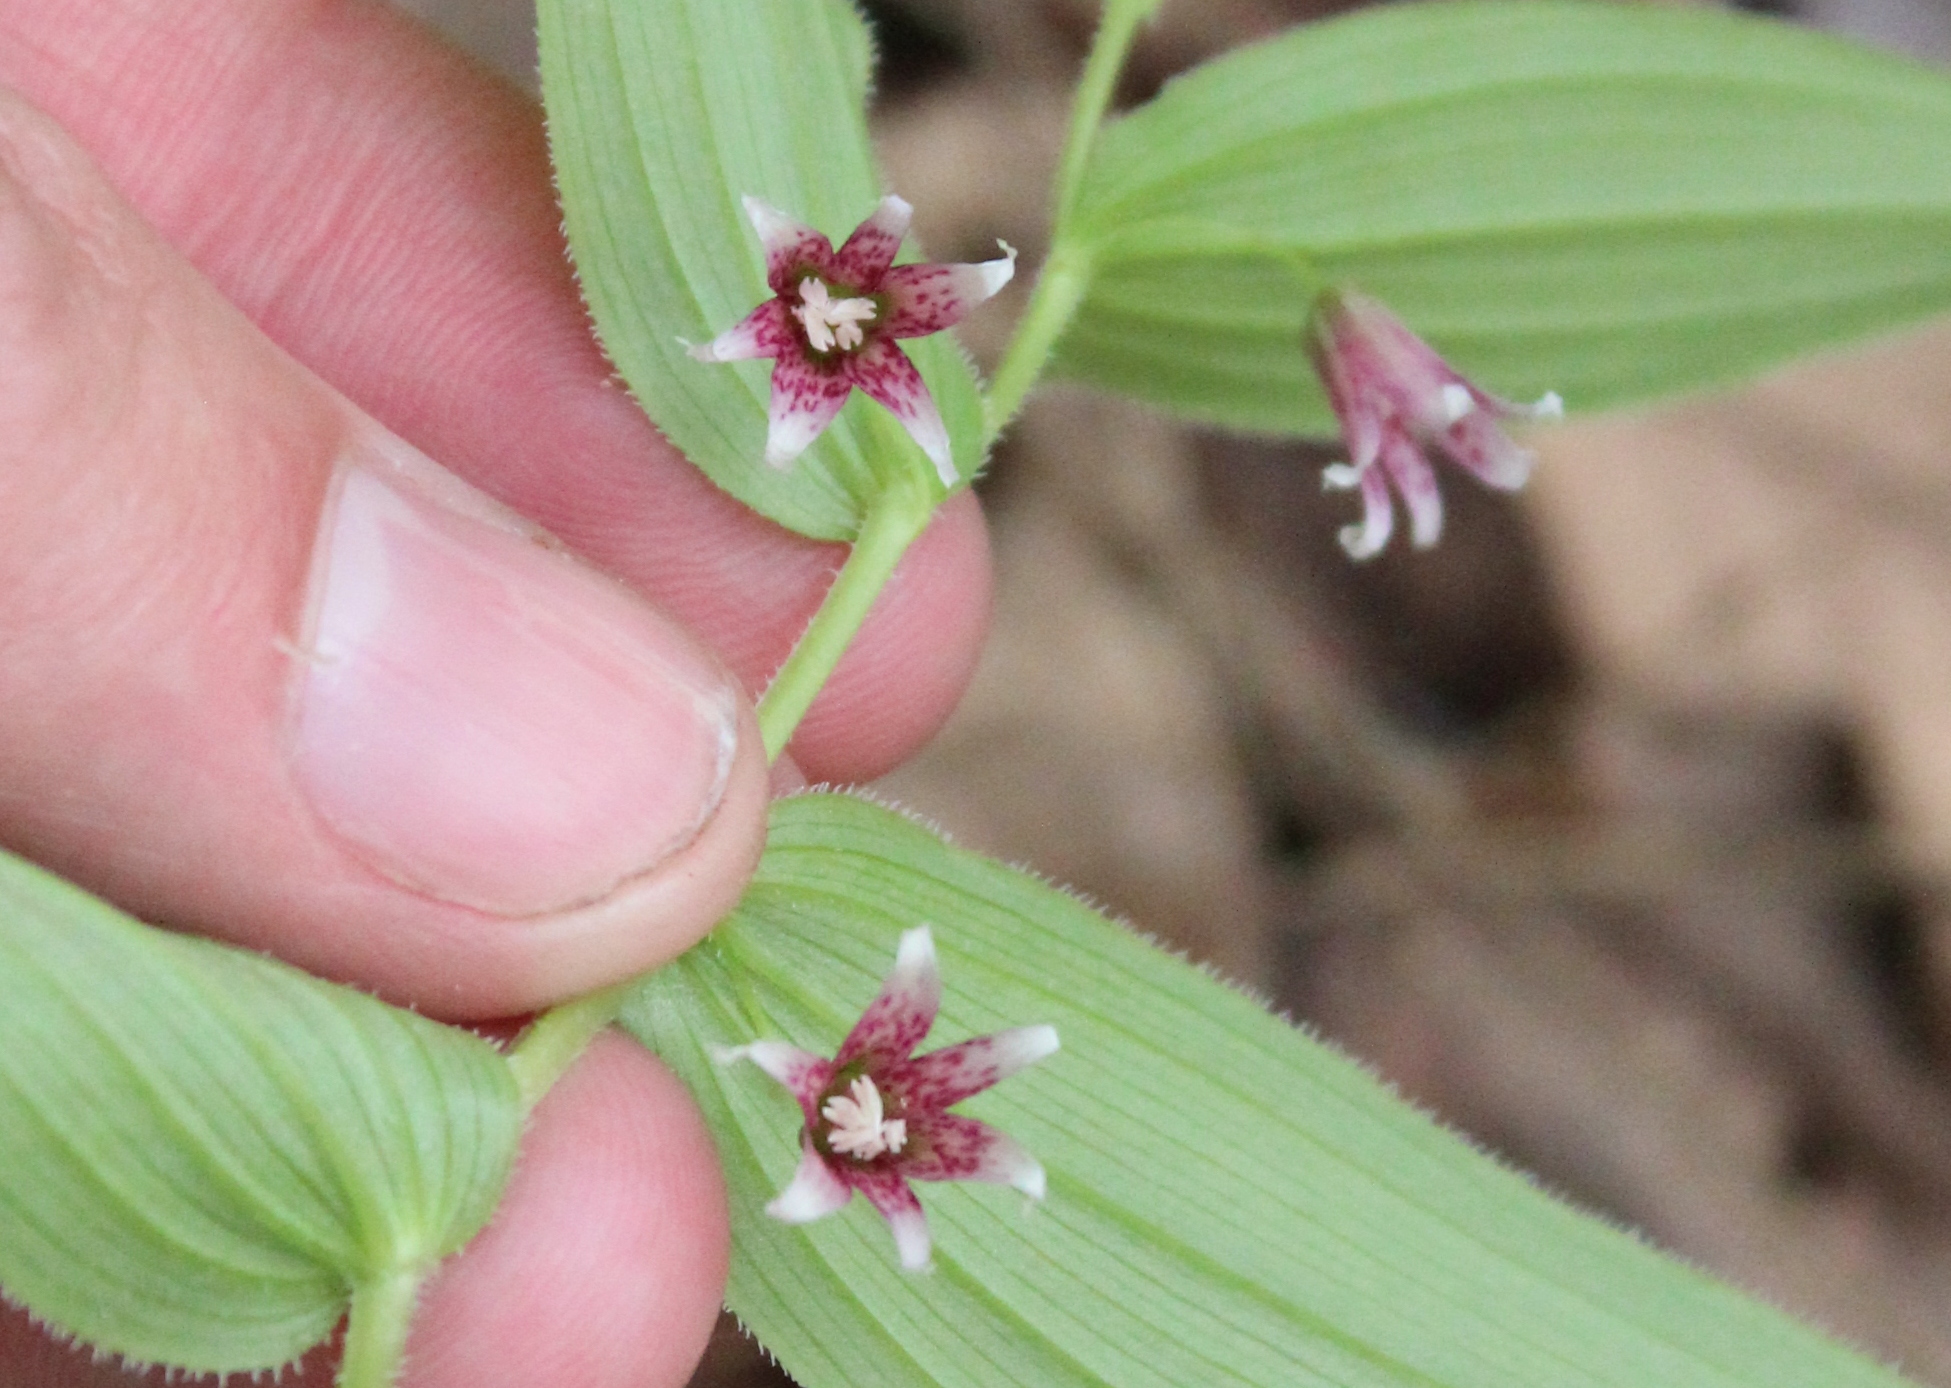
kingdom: Plantae
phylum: Tracheophyta
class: Liliopsida
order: Liliales
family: Liliaceae
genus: Streptopus
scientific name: Streptopus lanceolatus
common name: Rose mandarin
